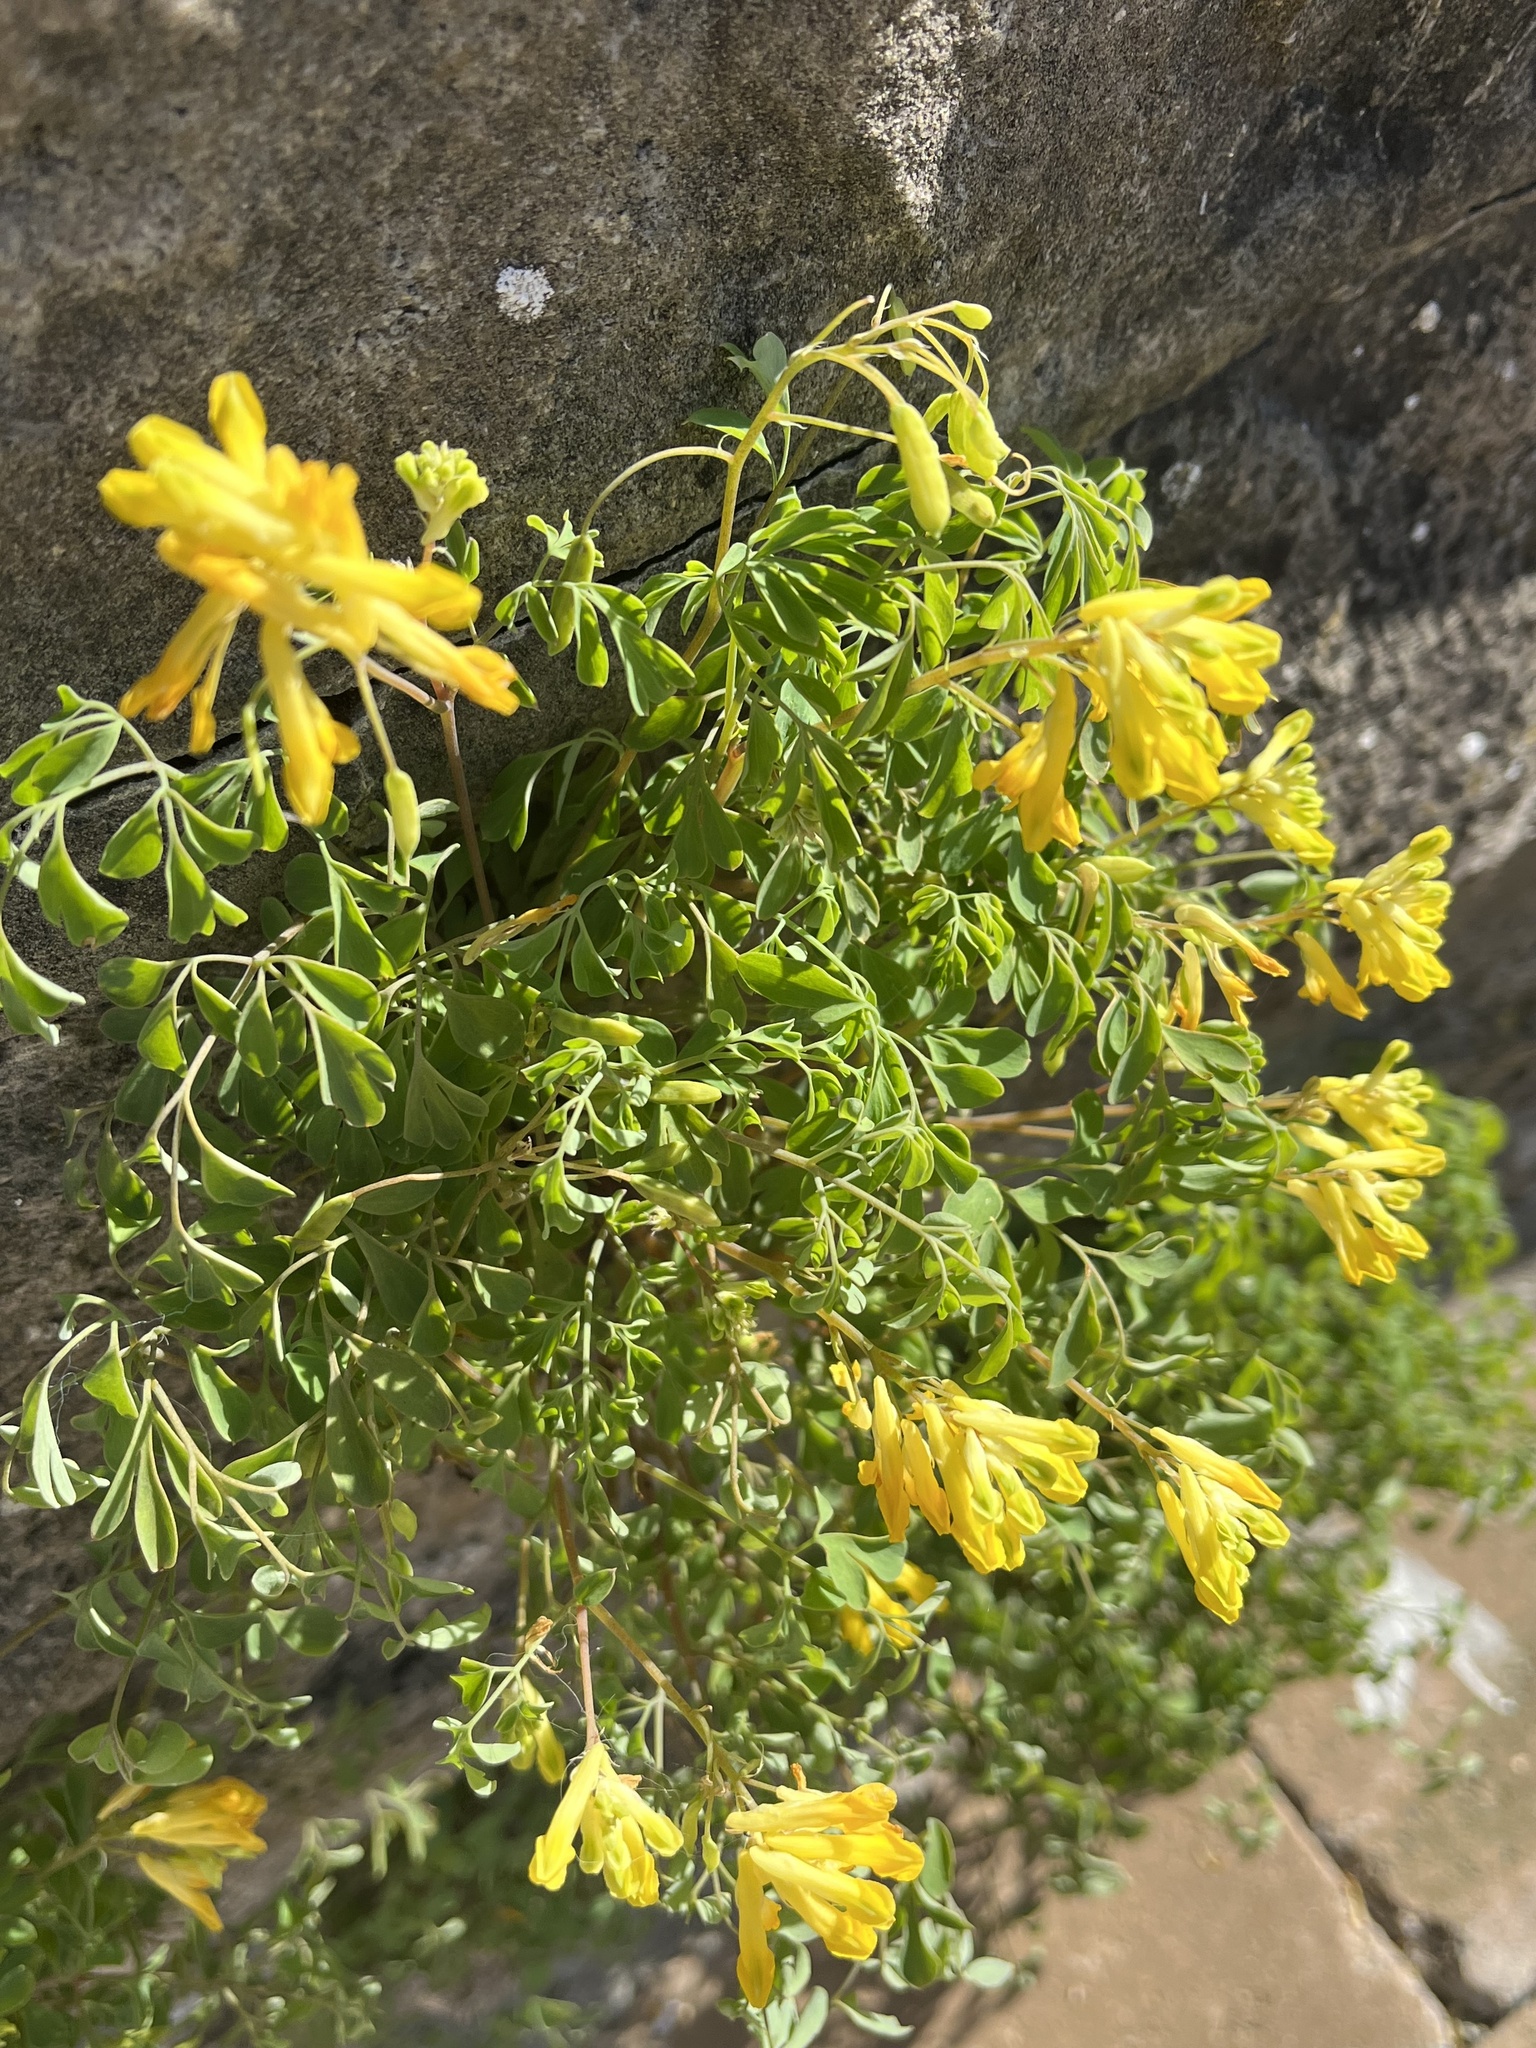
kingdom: Plantae
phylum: Tracheophyta
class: Magnoliopsida
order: Ranunculales
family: Papaveraceae
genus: Pseudofumaria
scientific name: Pseudofumaria lutea
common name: Yellow corydalis
